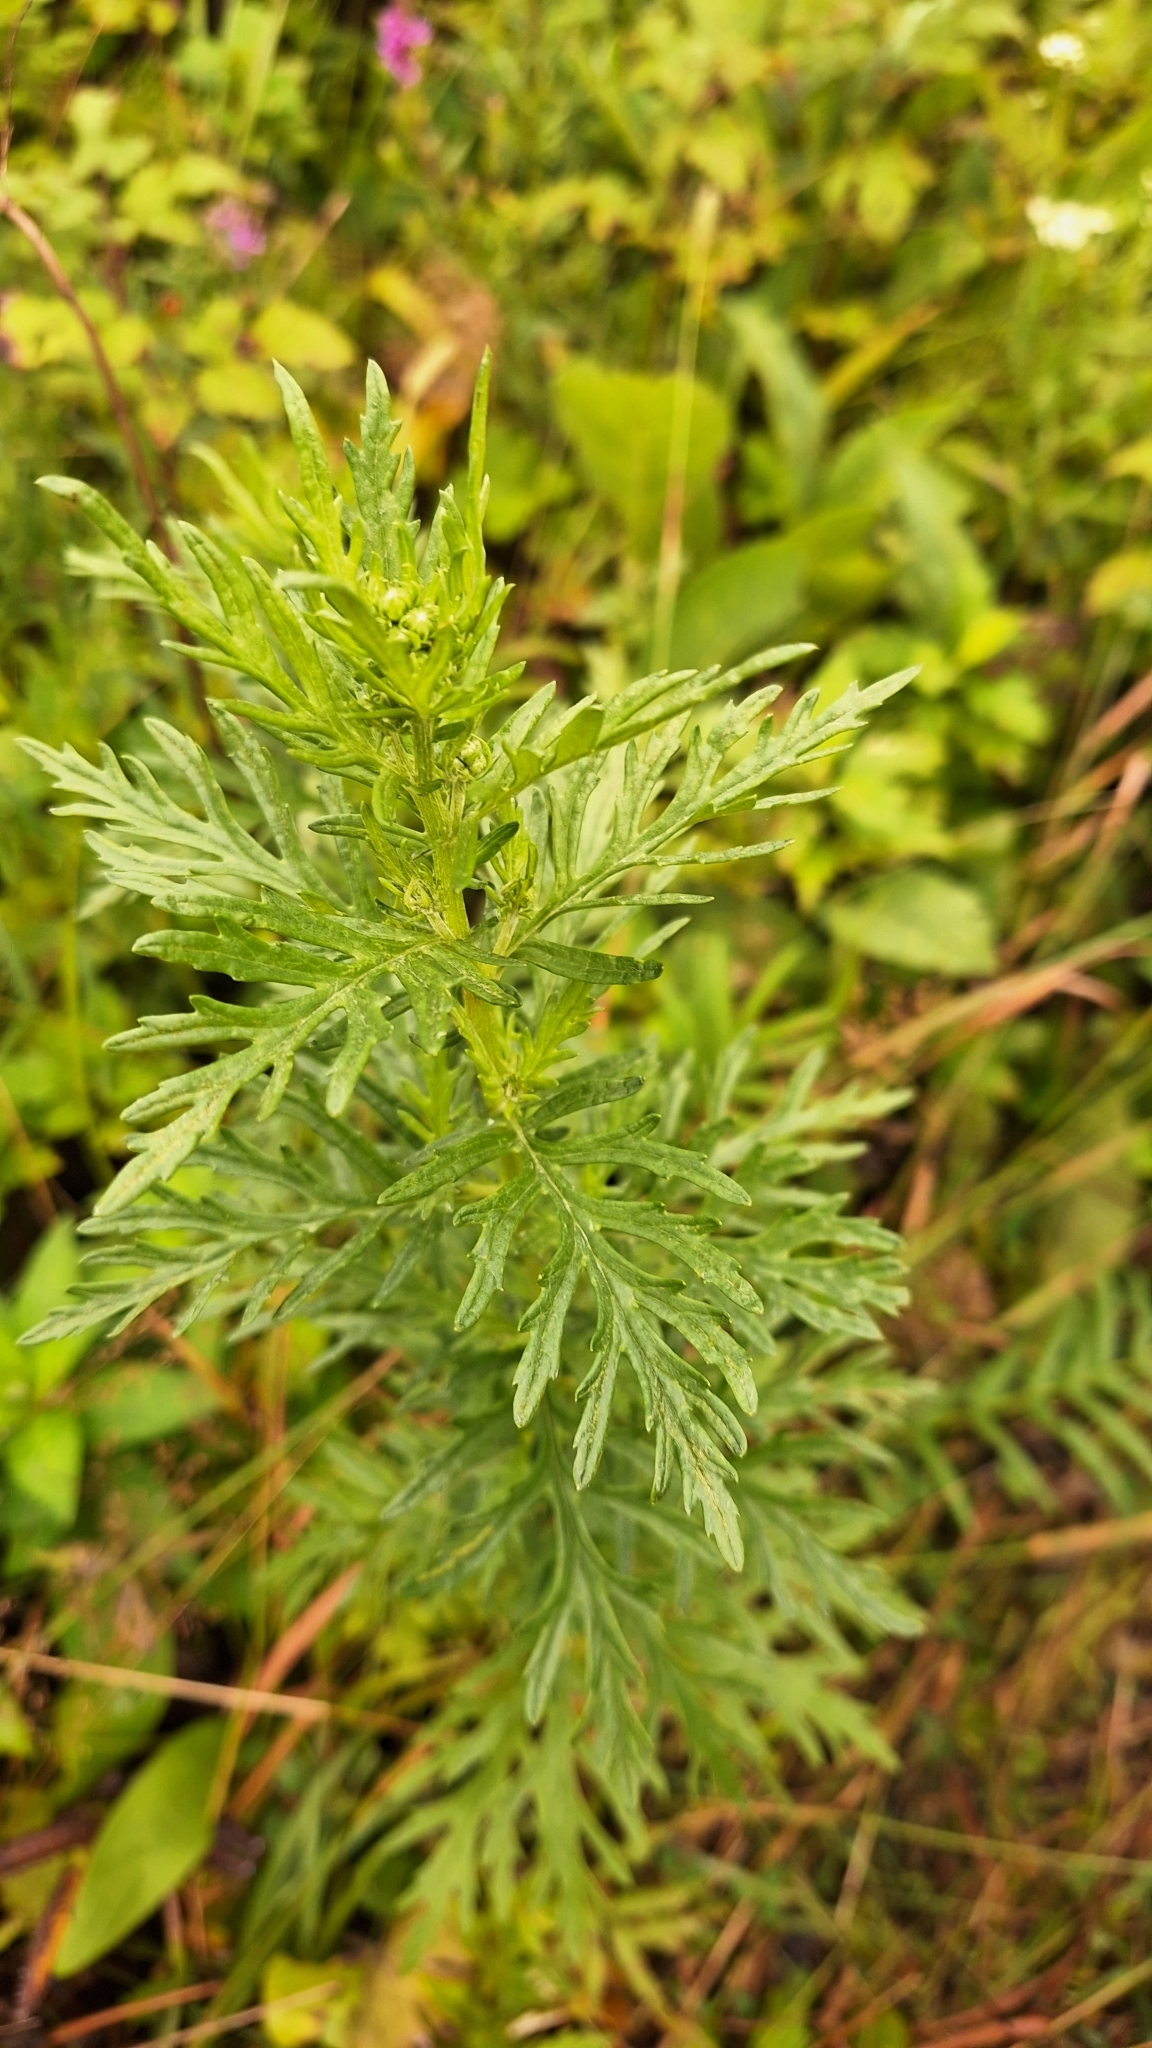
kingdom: Plantae
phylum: Tracheophyta
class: Magnoliopsida
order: Asterales
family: Asteraceae
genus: Jacobaea
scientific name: Jacobaea erucifolia
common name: Hoary ragwort
